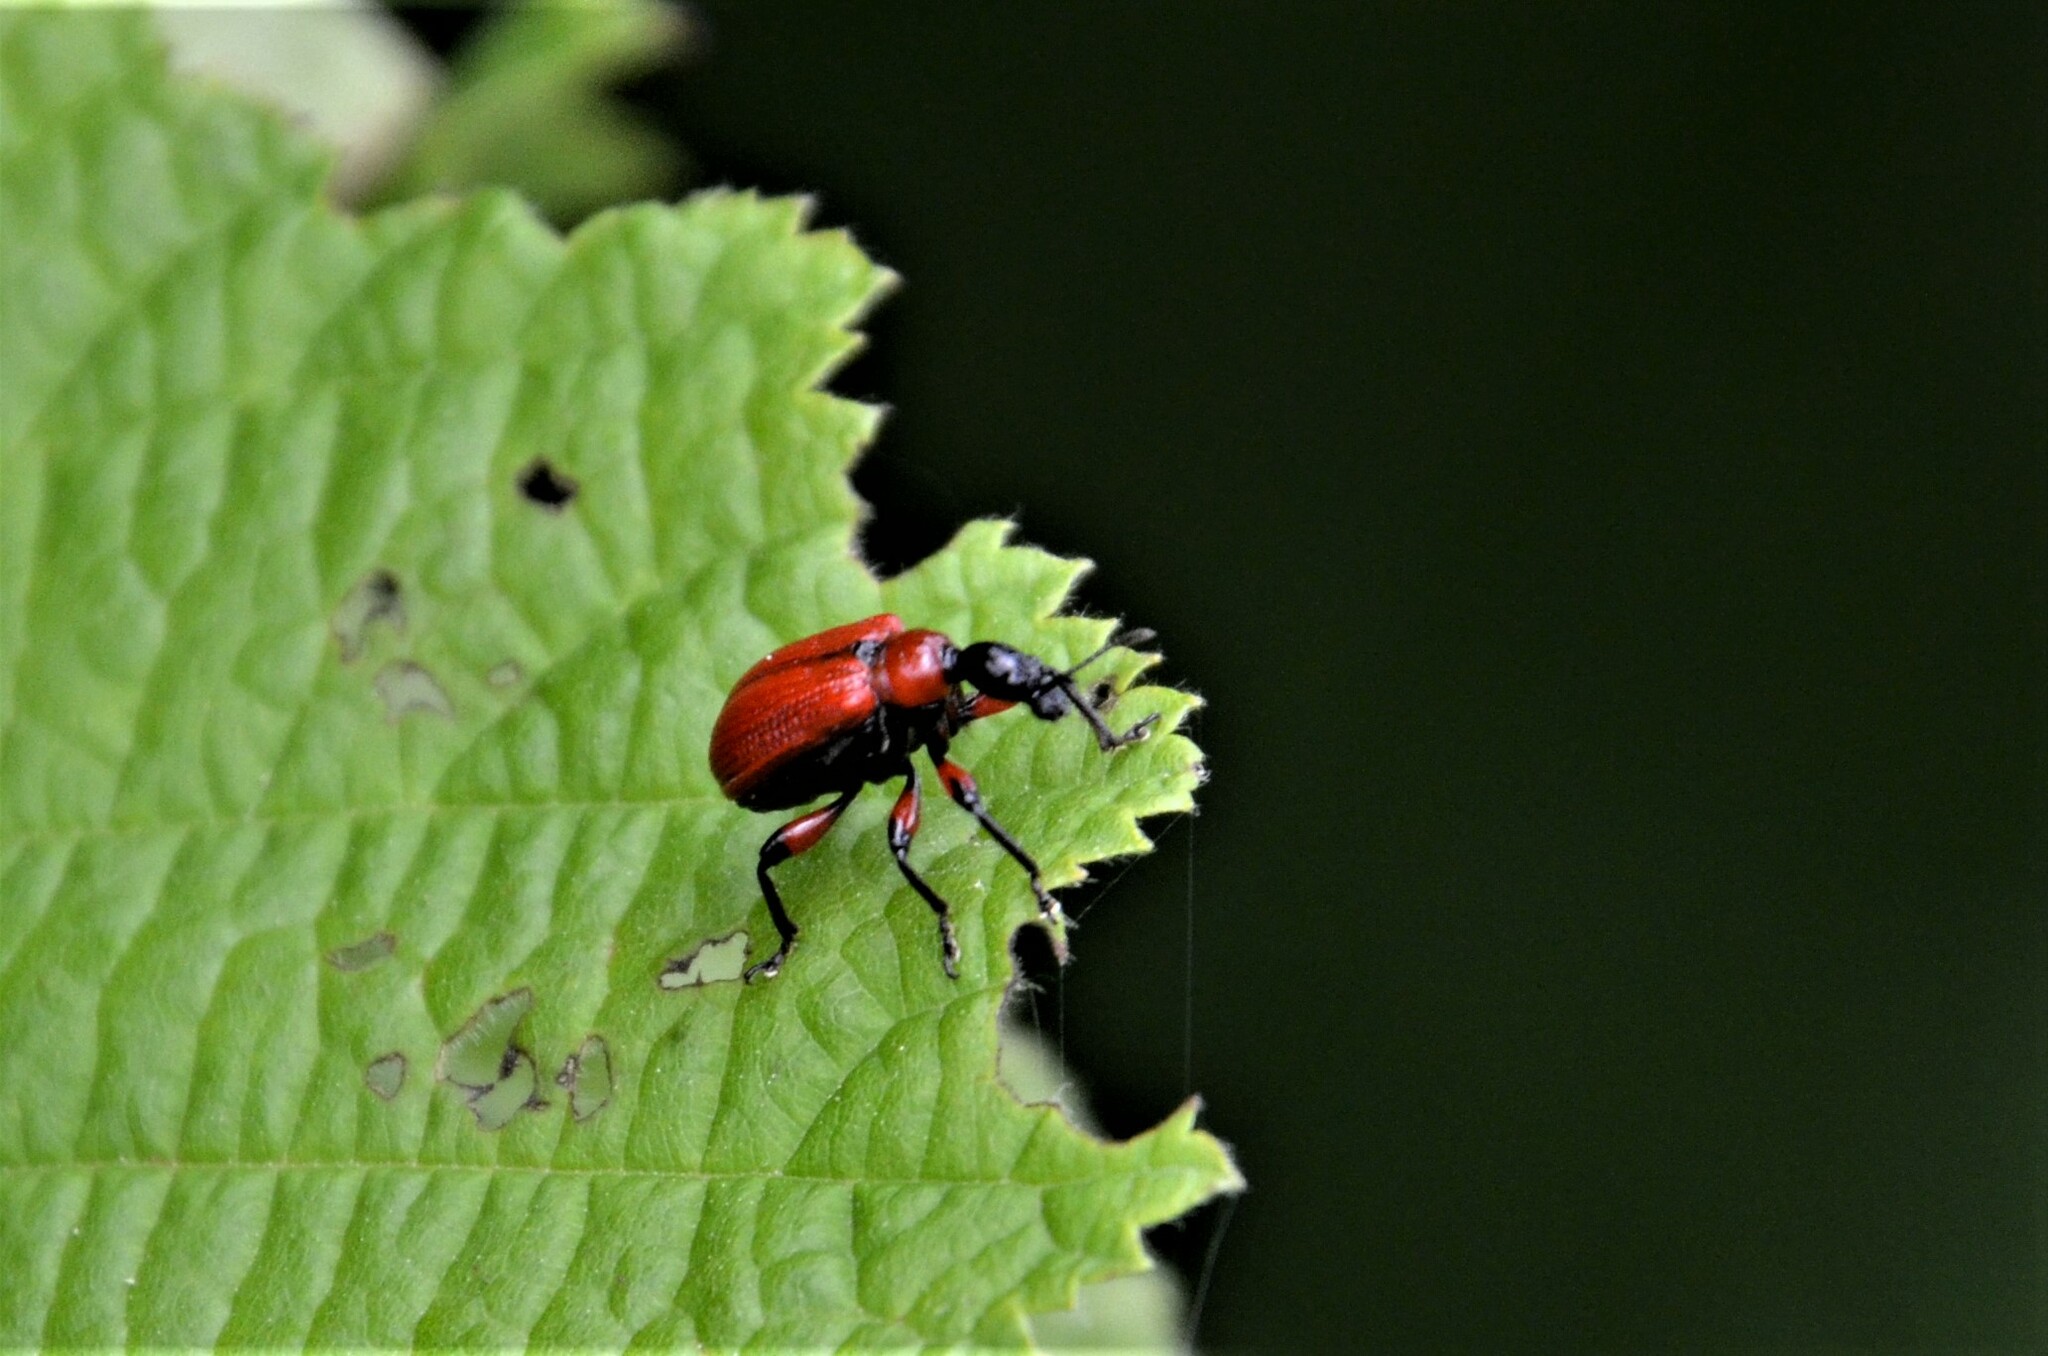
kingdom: Animalia
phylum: Arthropoda
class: Insecta
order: Coleoptera
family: Attelabidae
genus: Apoderus
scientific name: Apoderus coryli
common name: Hazel leaf roller
